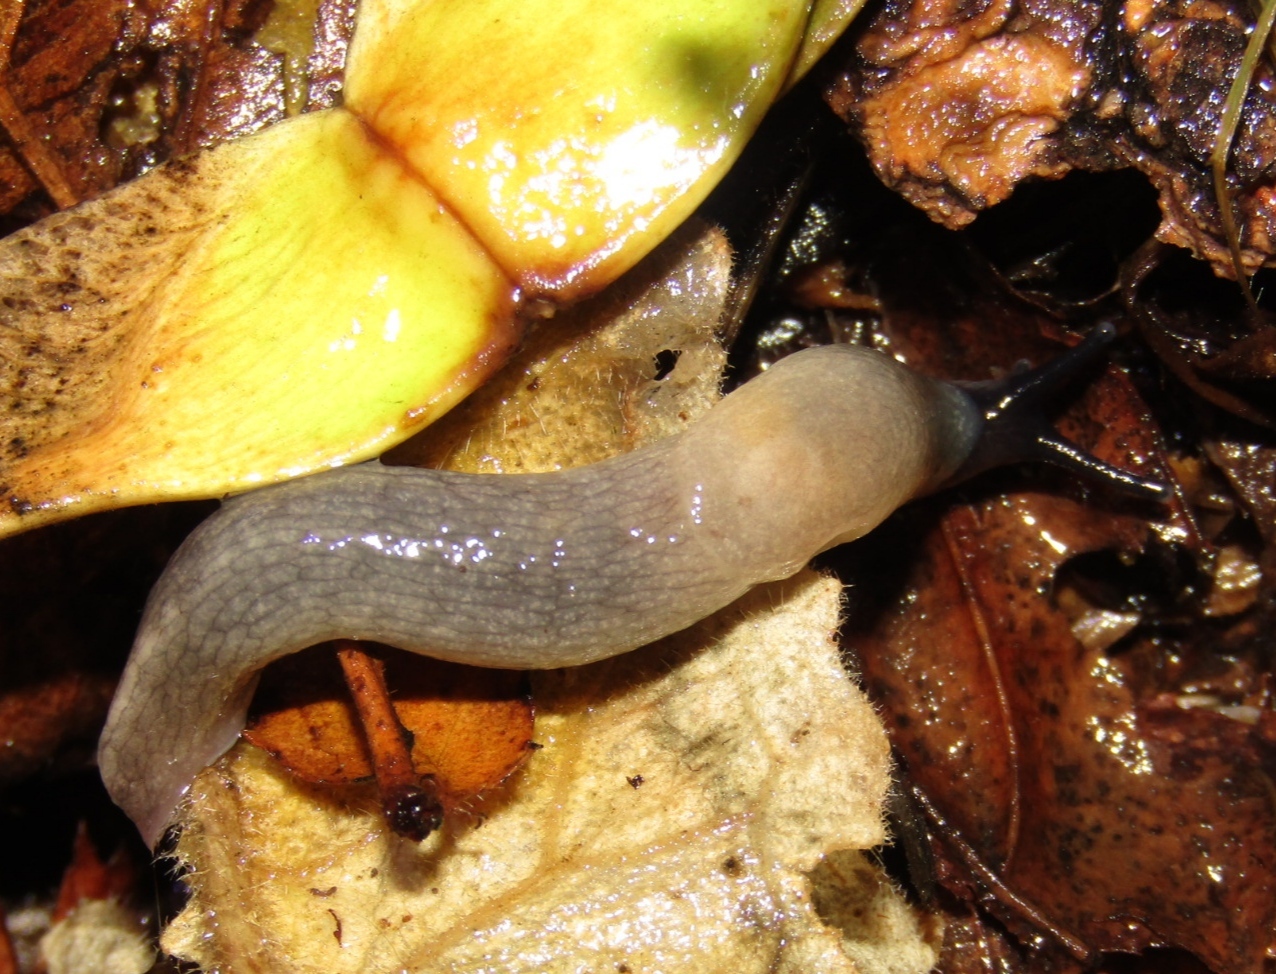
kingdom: Animalia
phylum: Mollusca
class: Gastropoda
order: Stylommatophora
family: Agriolimacidae
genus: Krynickillus
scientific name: Krynickillus melanocephalus
